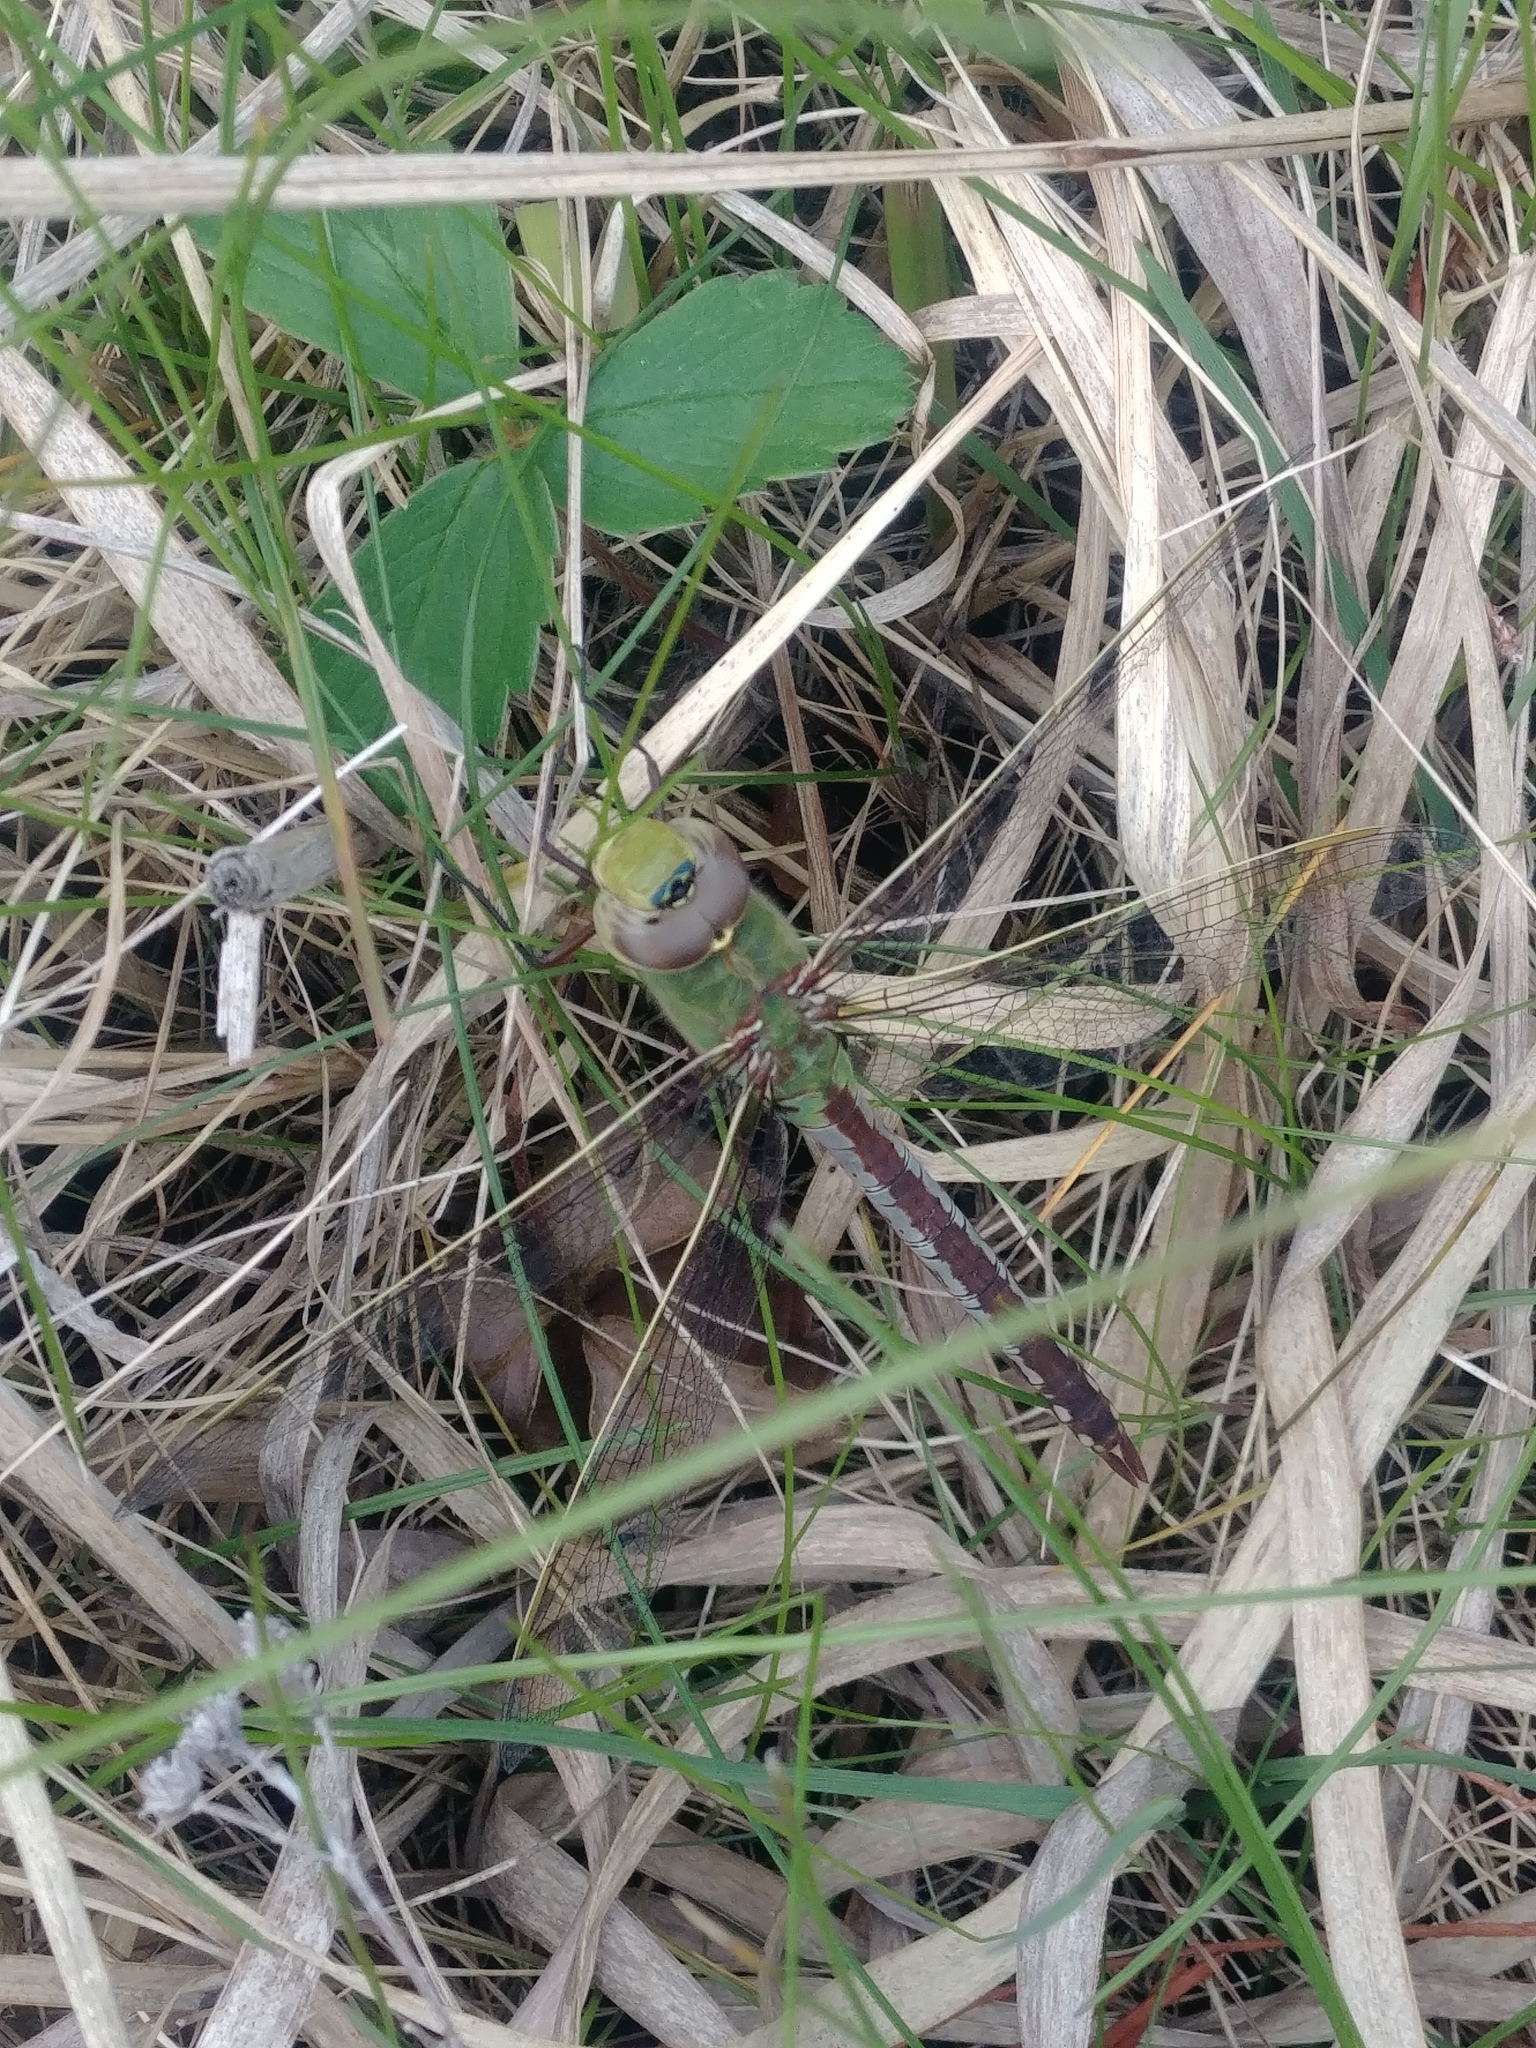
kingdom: Animalia
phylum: Arthropoda
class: Insecta
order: Odonata
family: Aeshnidae
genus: Anax
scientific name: Anax junius
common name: Common green darner
